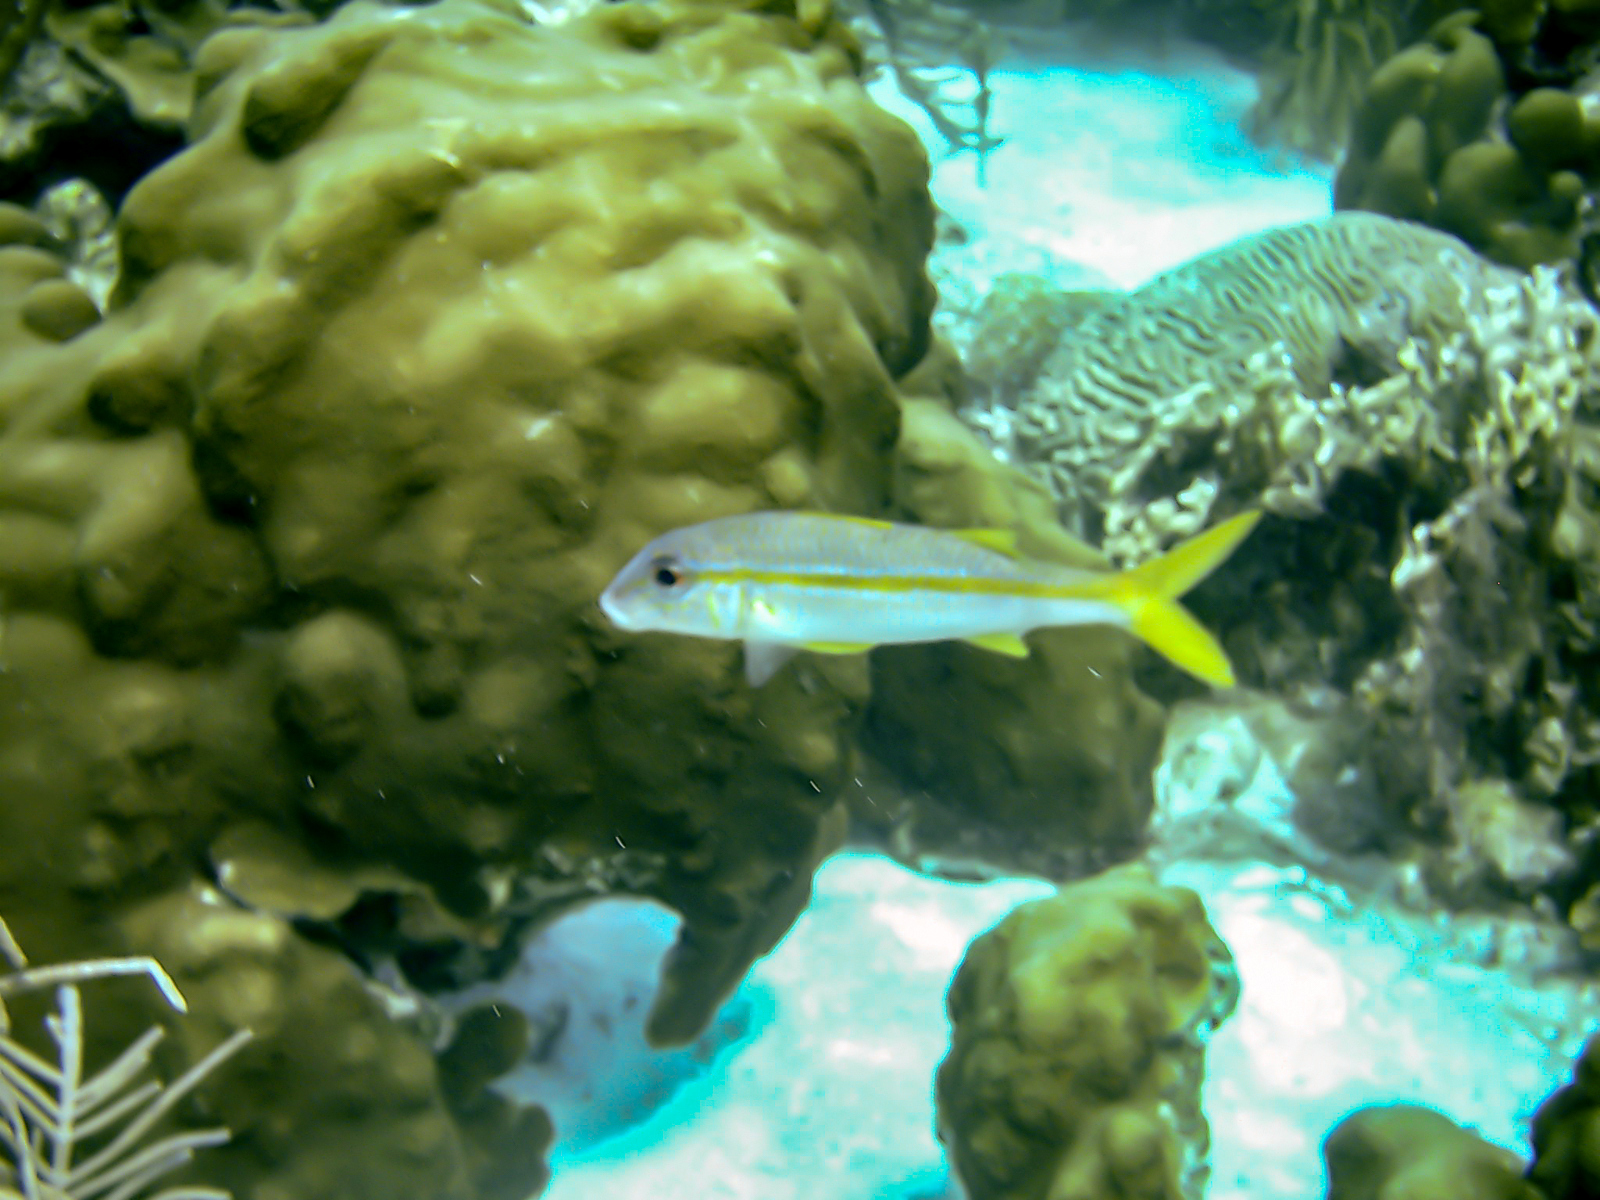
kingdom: Animalia
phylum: Chordata
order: Perciformes
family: Mullidae
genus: Mulloidichthys
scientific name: Mulloidichthys martinicus
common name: Yellow goatfish
